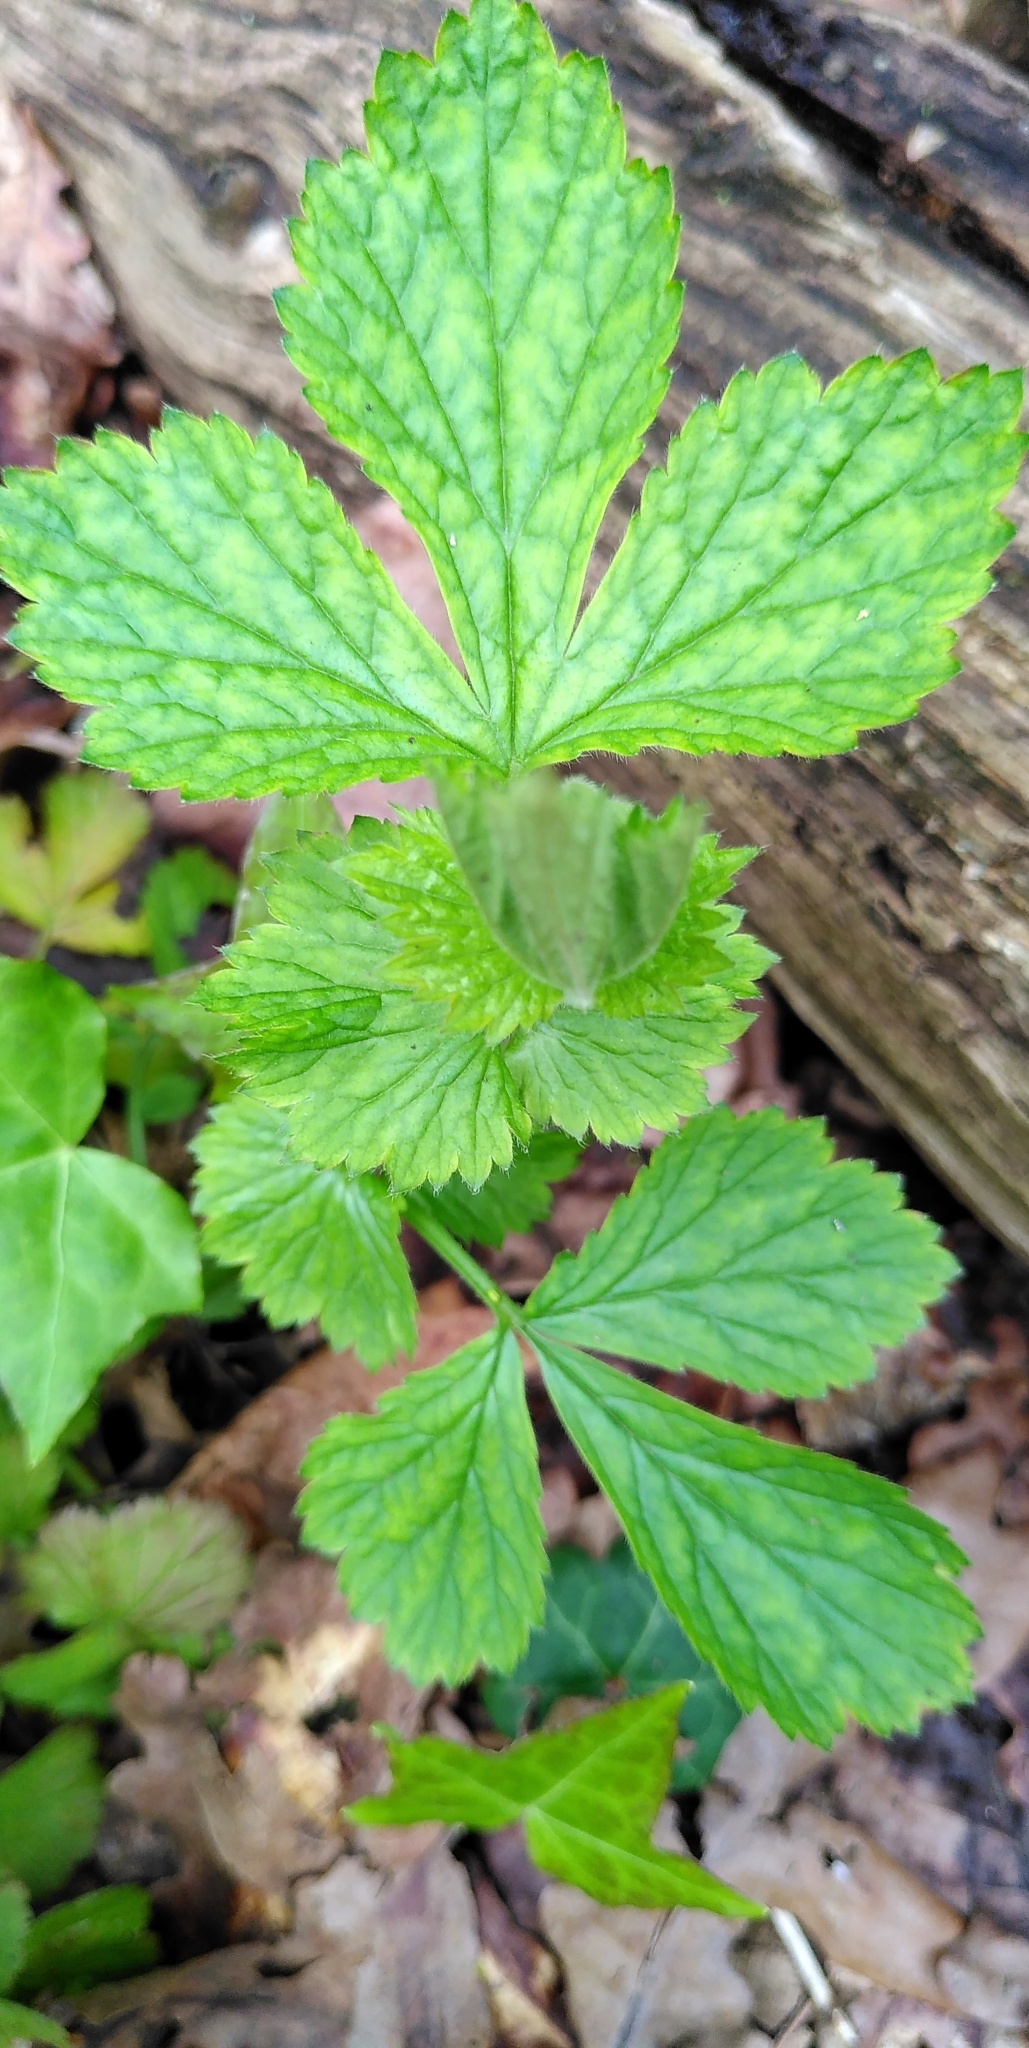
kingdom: Plantae
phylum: Tracheophyta
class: Magnoliopsida
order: Rosales
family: Rosaceae
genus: Geum
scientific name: Geum urbanum
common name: Wood avens
